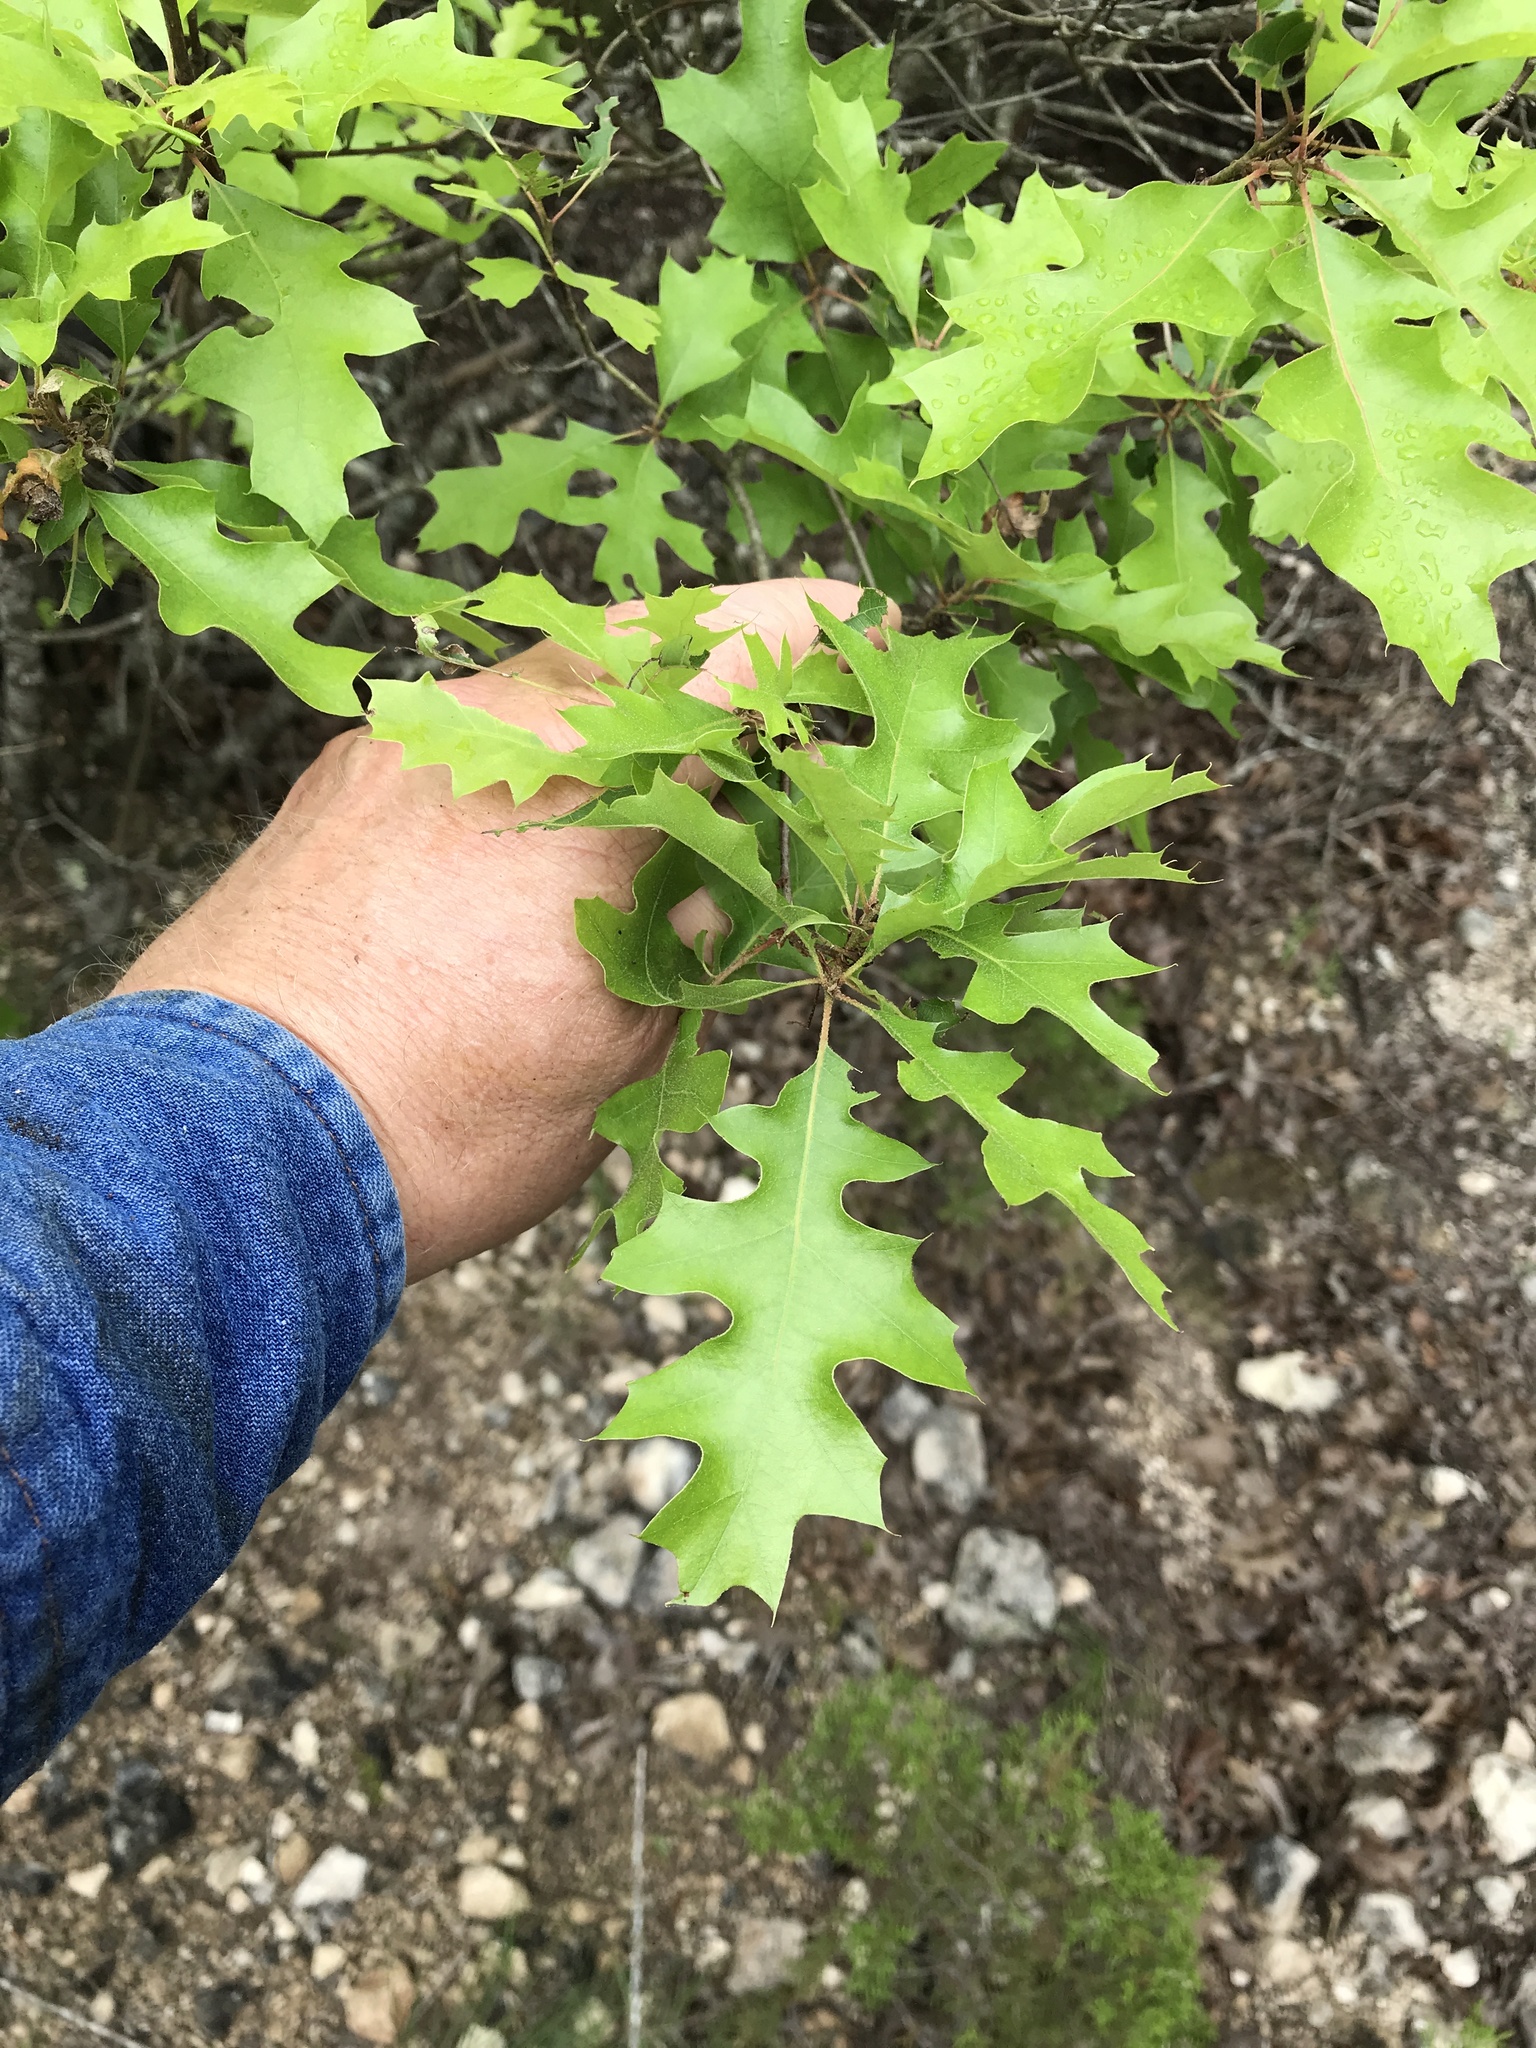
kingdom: Plantae
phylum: Tracheophyta
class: Magnoliopsida
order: Fagales
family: Fagaceae
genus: Quercus
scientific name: Quercus buckleyi
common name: Buckley oak
